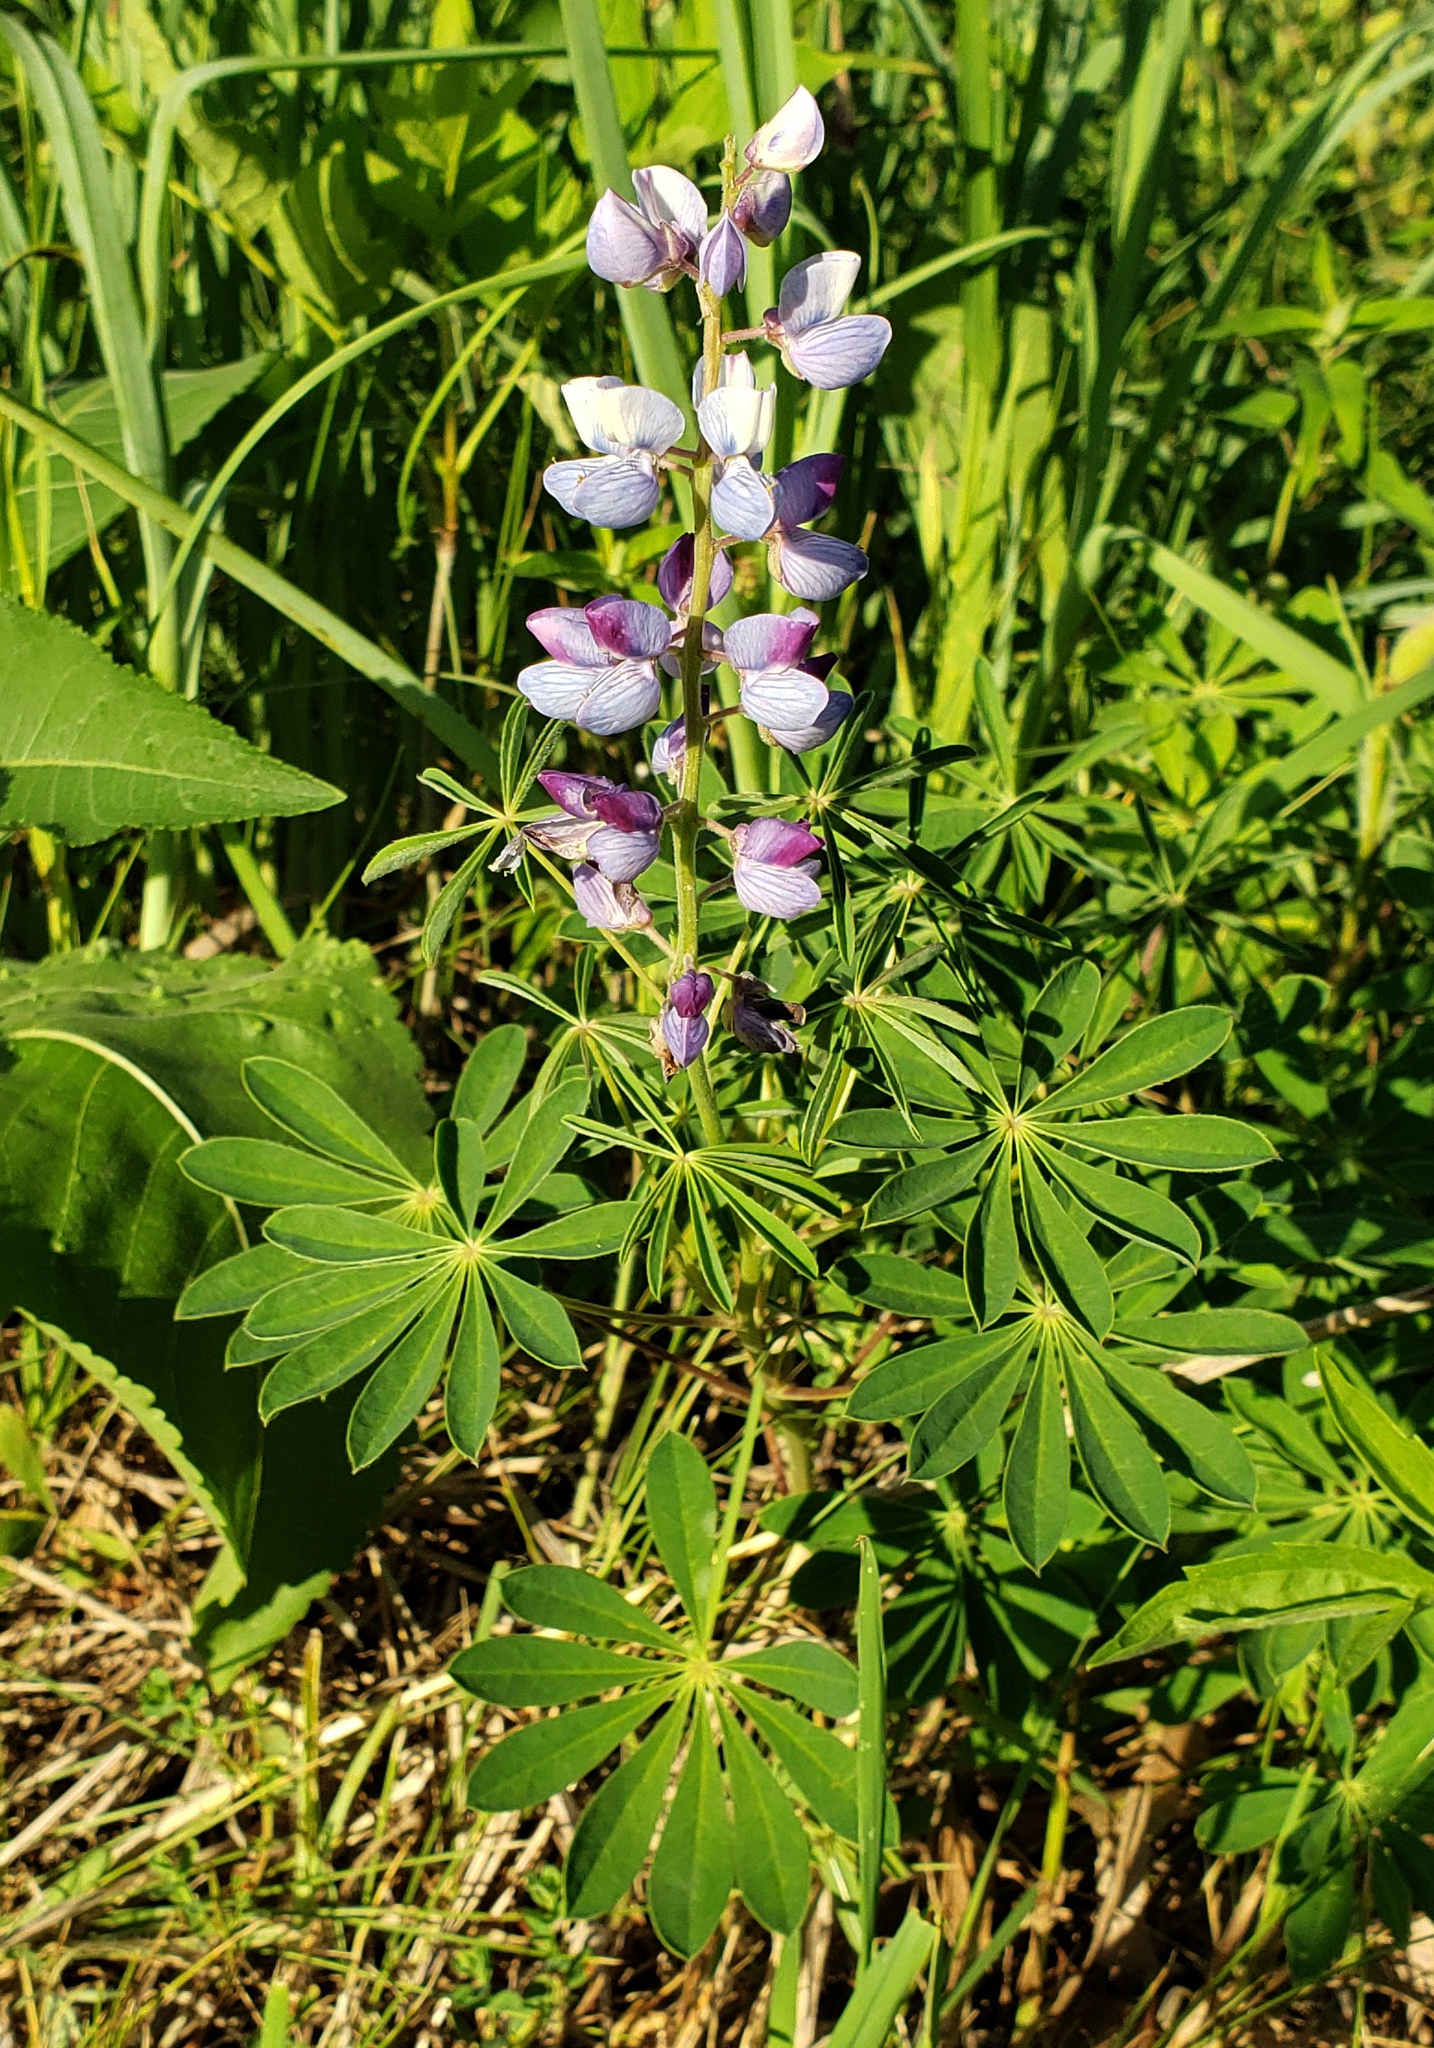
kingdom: Plantae
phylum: Tracheophyta
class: Magnoliopsida
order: Fabales
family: Fabaceae
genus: Lupinus
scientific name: Lupinus perennis
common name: Sundial lupine
